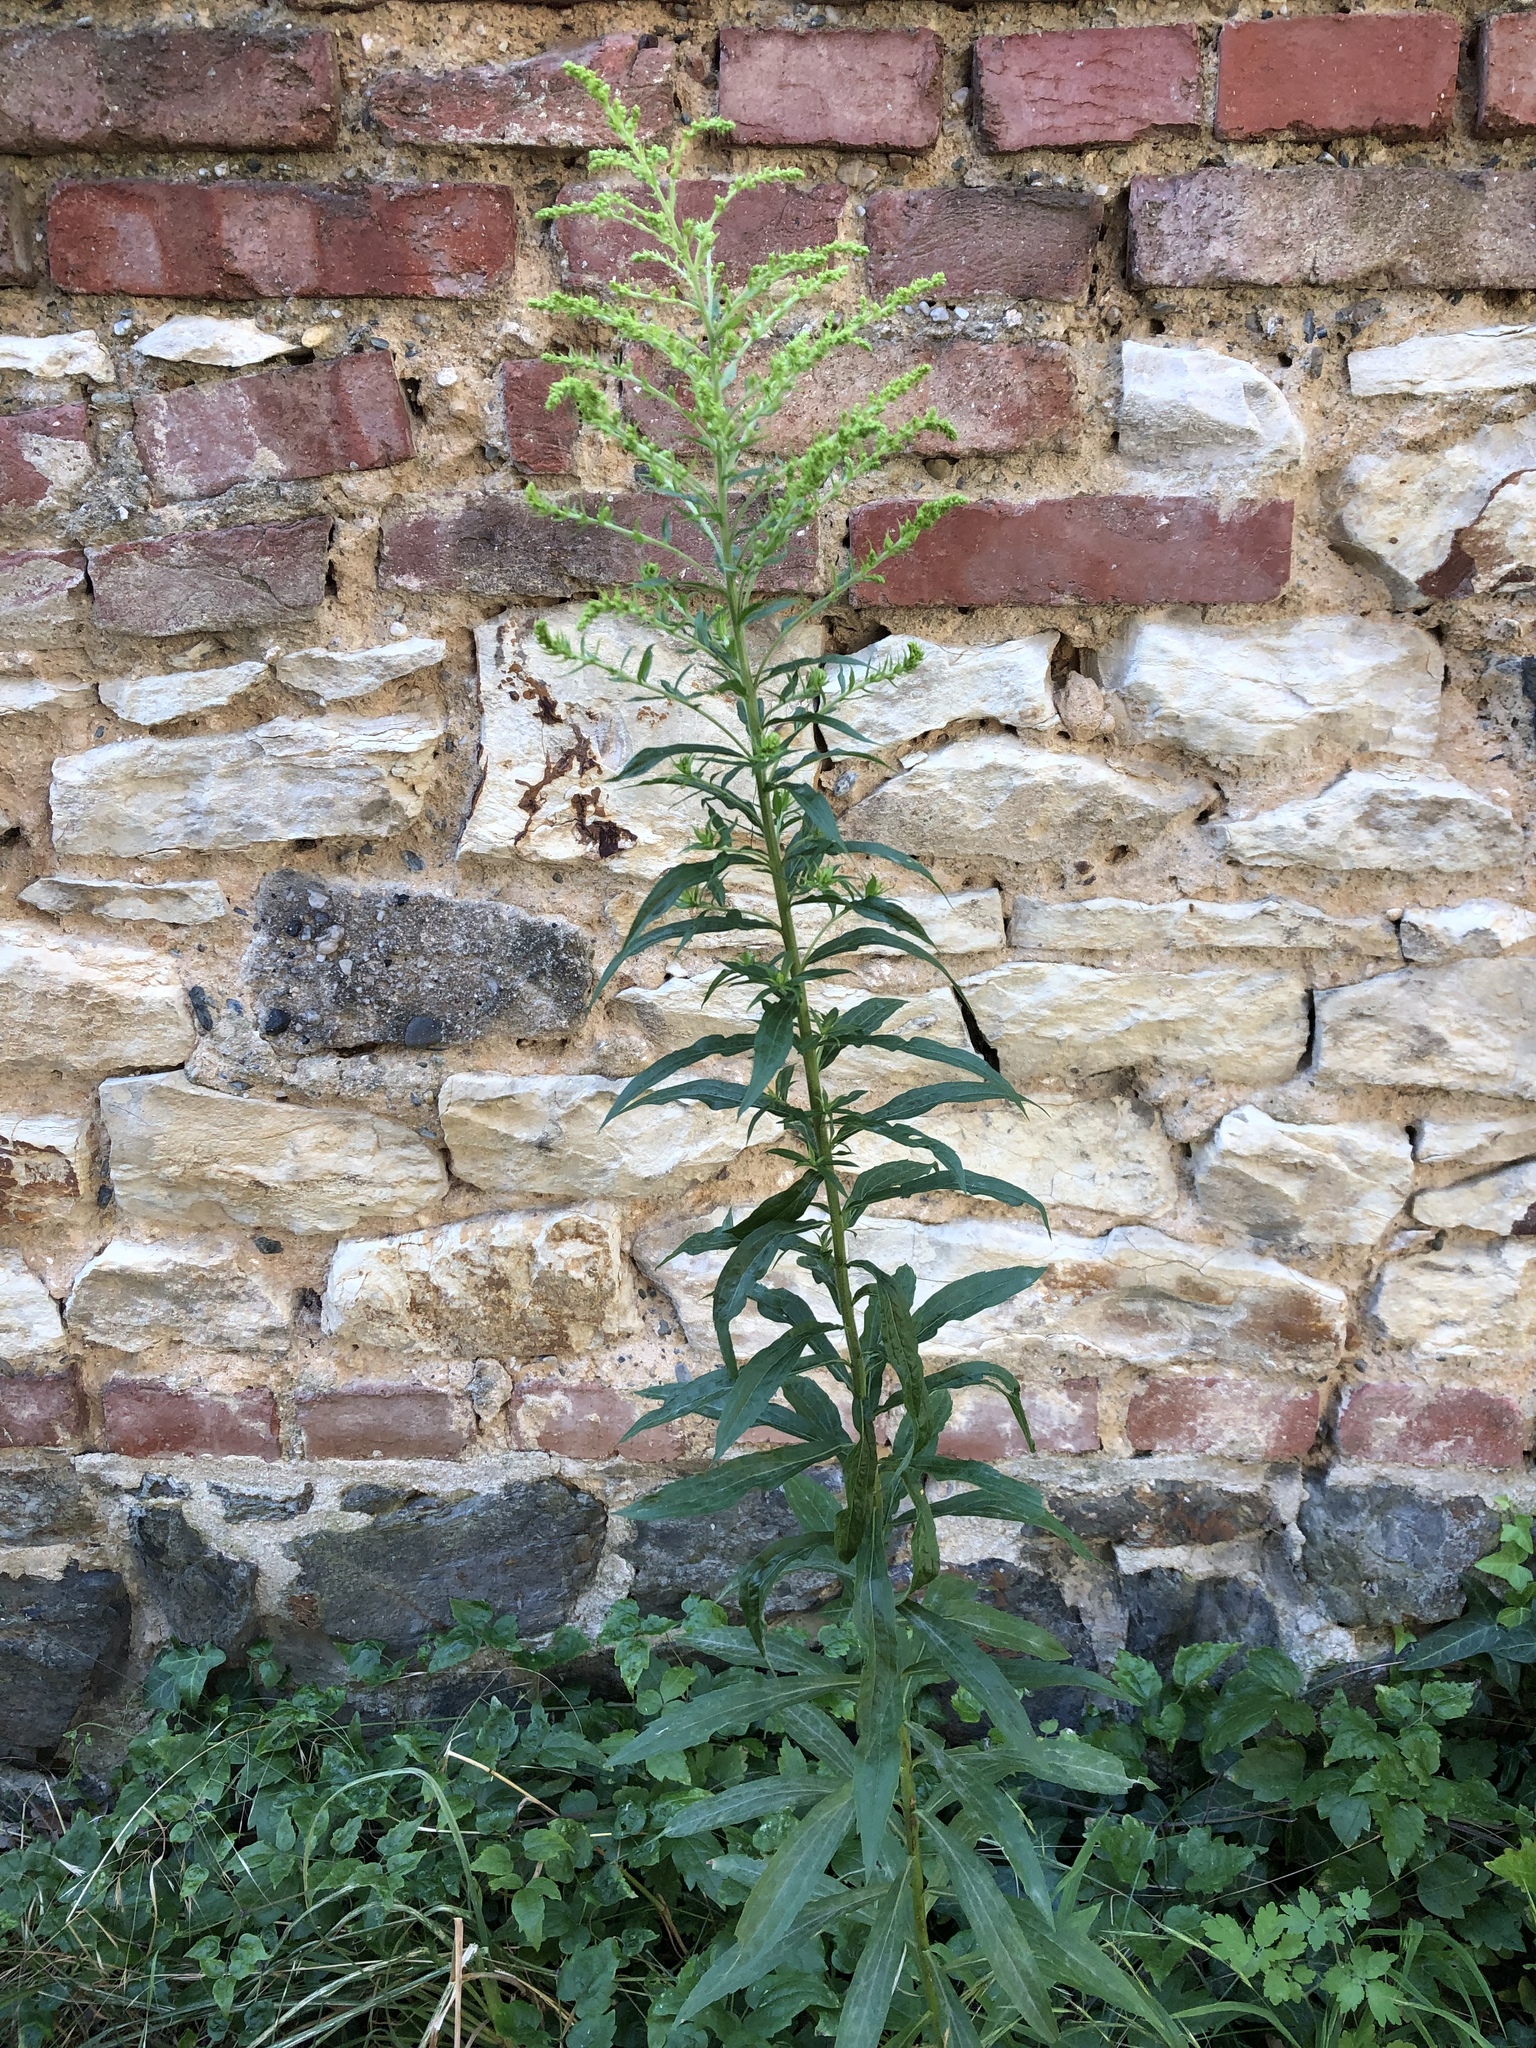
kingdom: Plantae
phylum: Tracheophyta
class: Magnoliopsida
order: Asterales
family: Asteraceae
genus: Solidago
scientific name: Solidago canadensis
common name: Canada goldenrod
